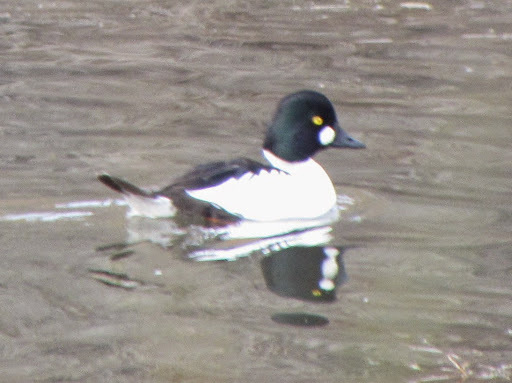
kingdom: Animalia
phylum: Chordata
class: Aves
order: Anseriformes
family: Anatidae
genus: Bucephala
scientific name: Bucephala clangula
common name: Common goldeneye
